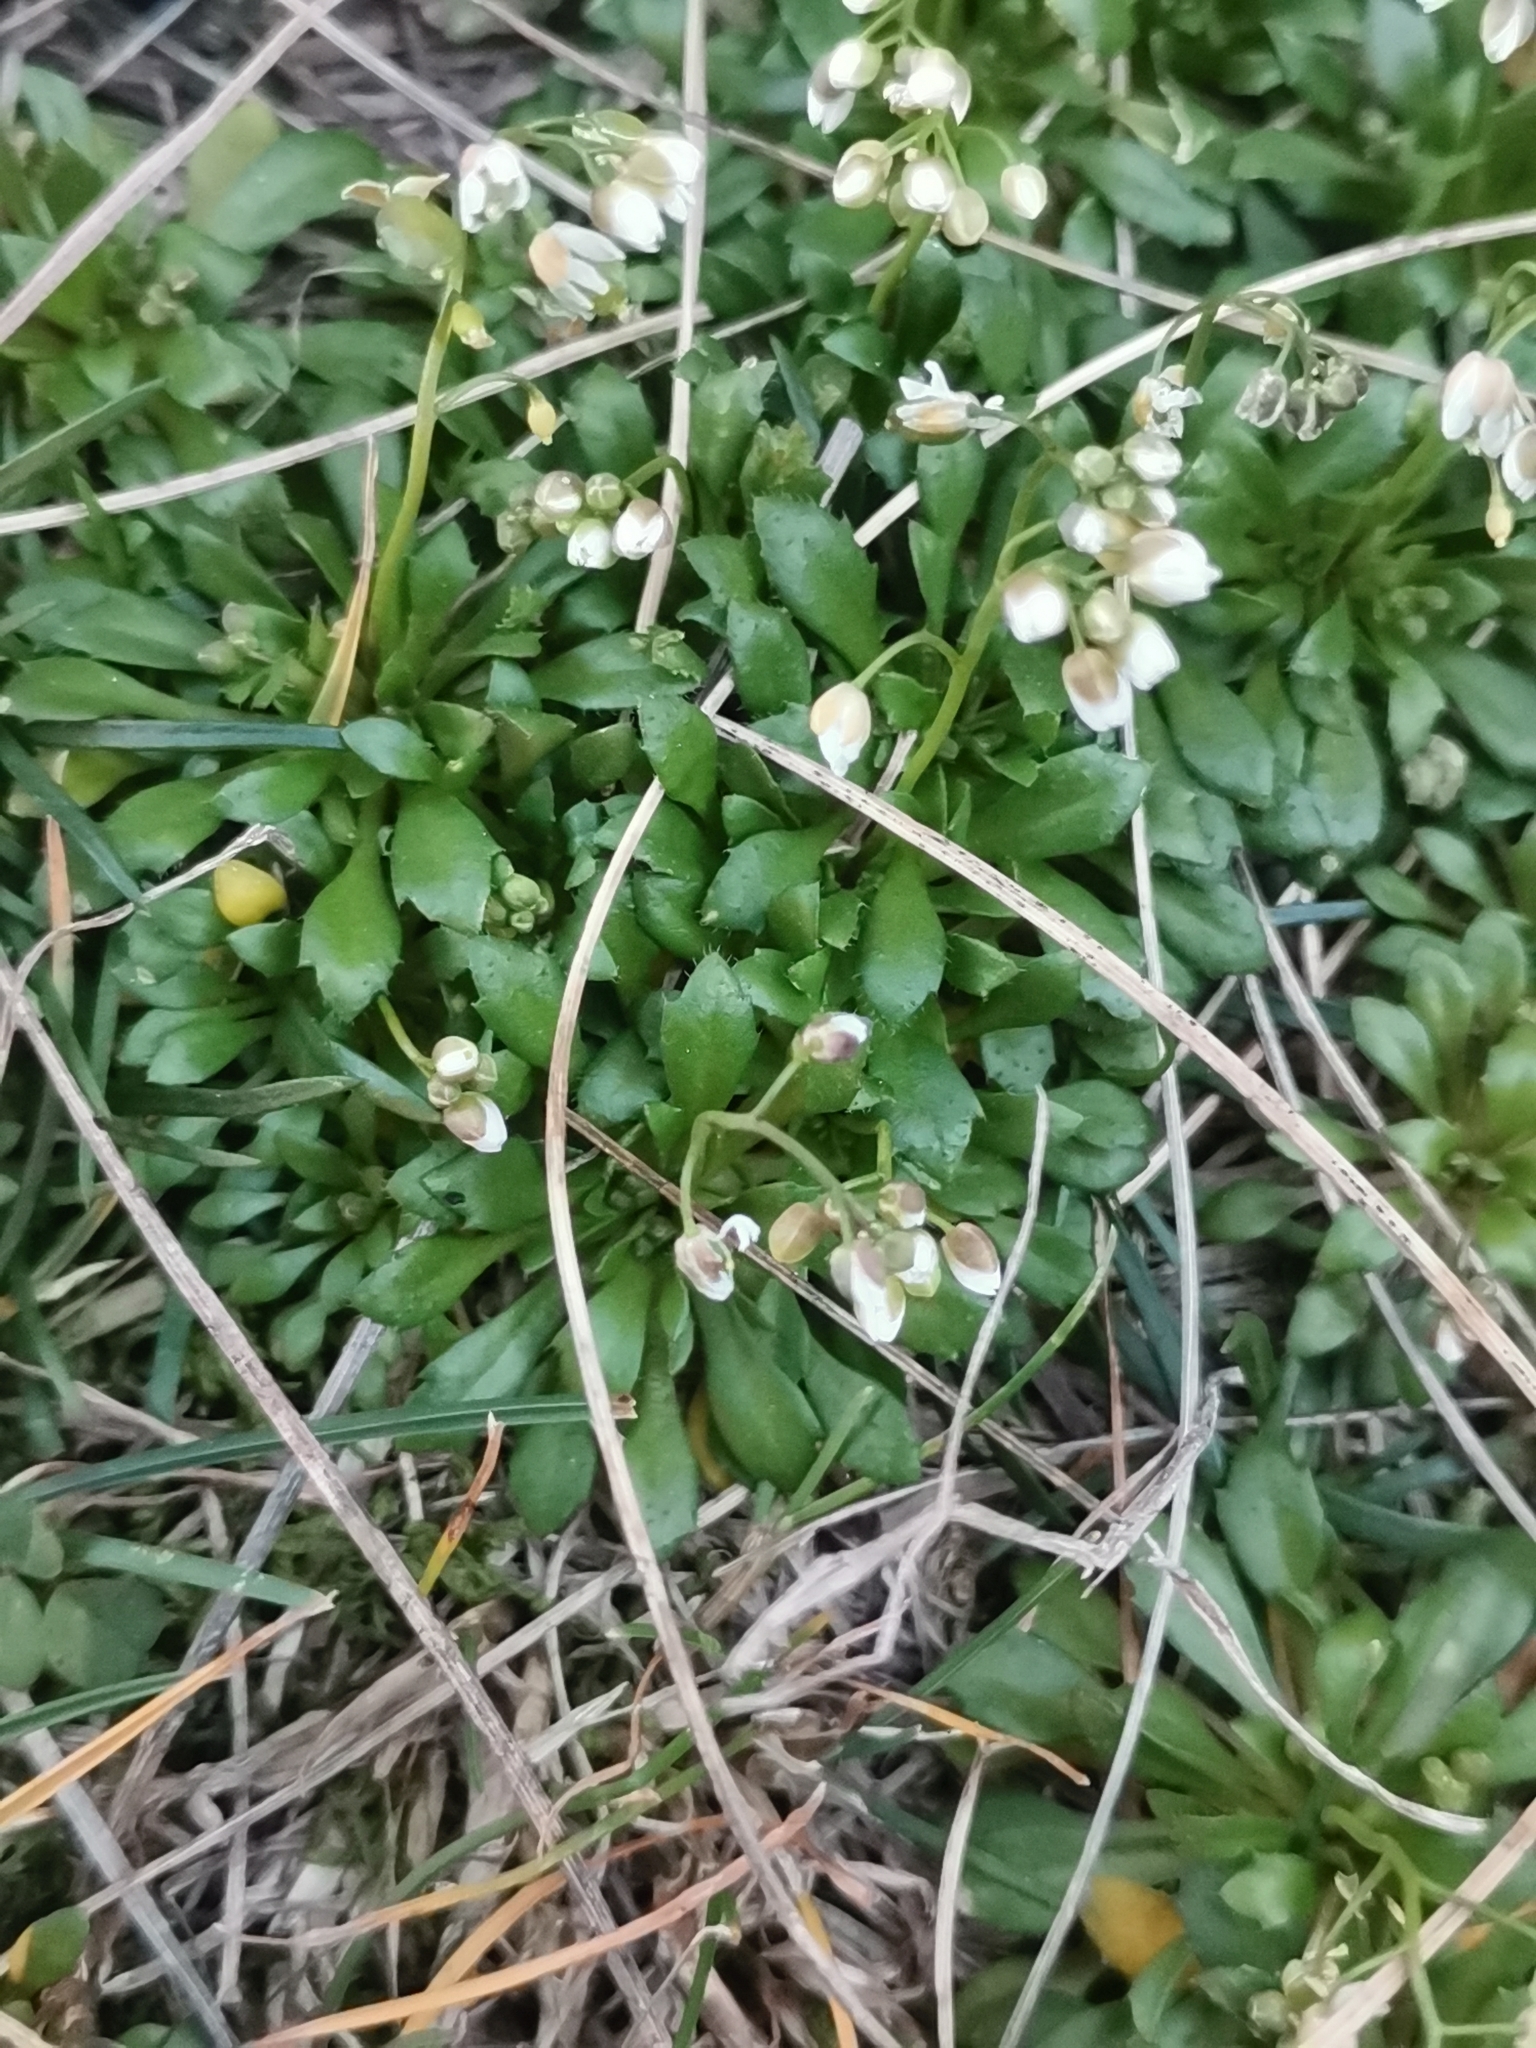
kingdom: Plantae
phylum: Tracheophyta
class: Magnoliopsida
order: Brassicales
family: Brassicaceae
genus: Draba
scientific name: Draba verna
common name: Spring draba
